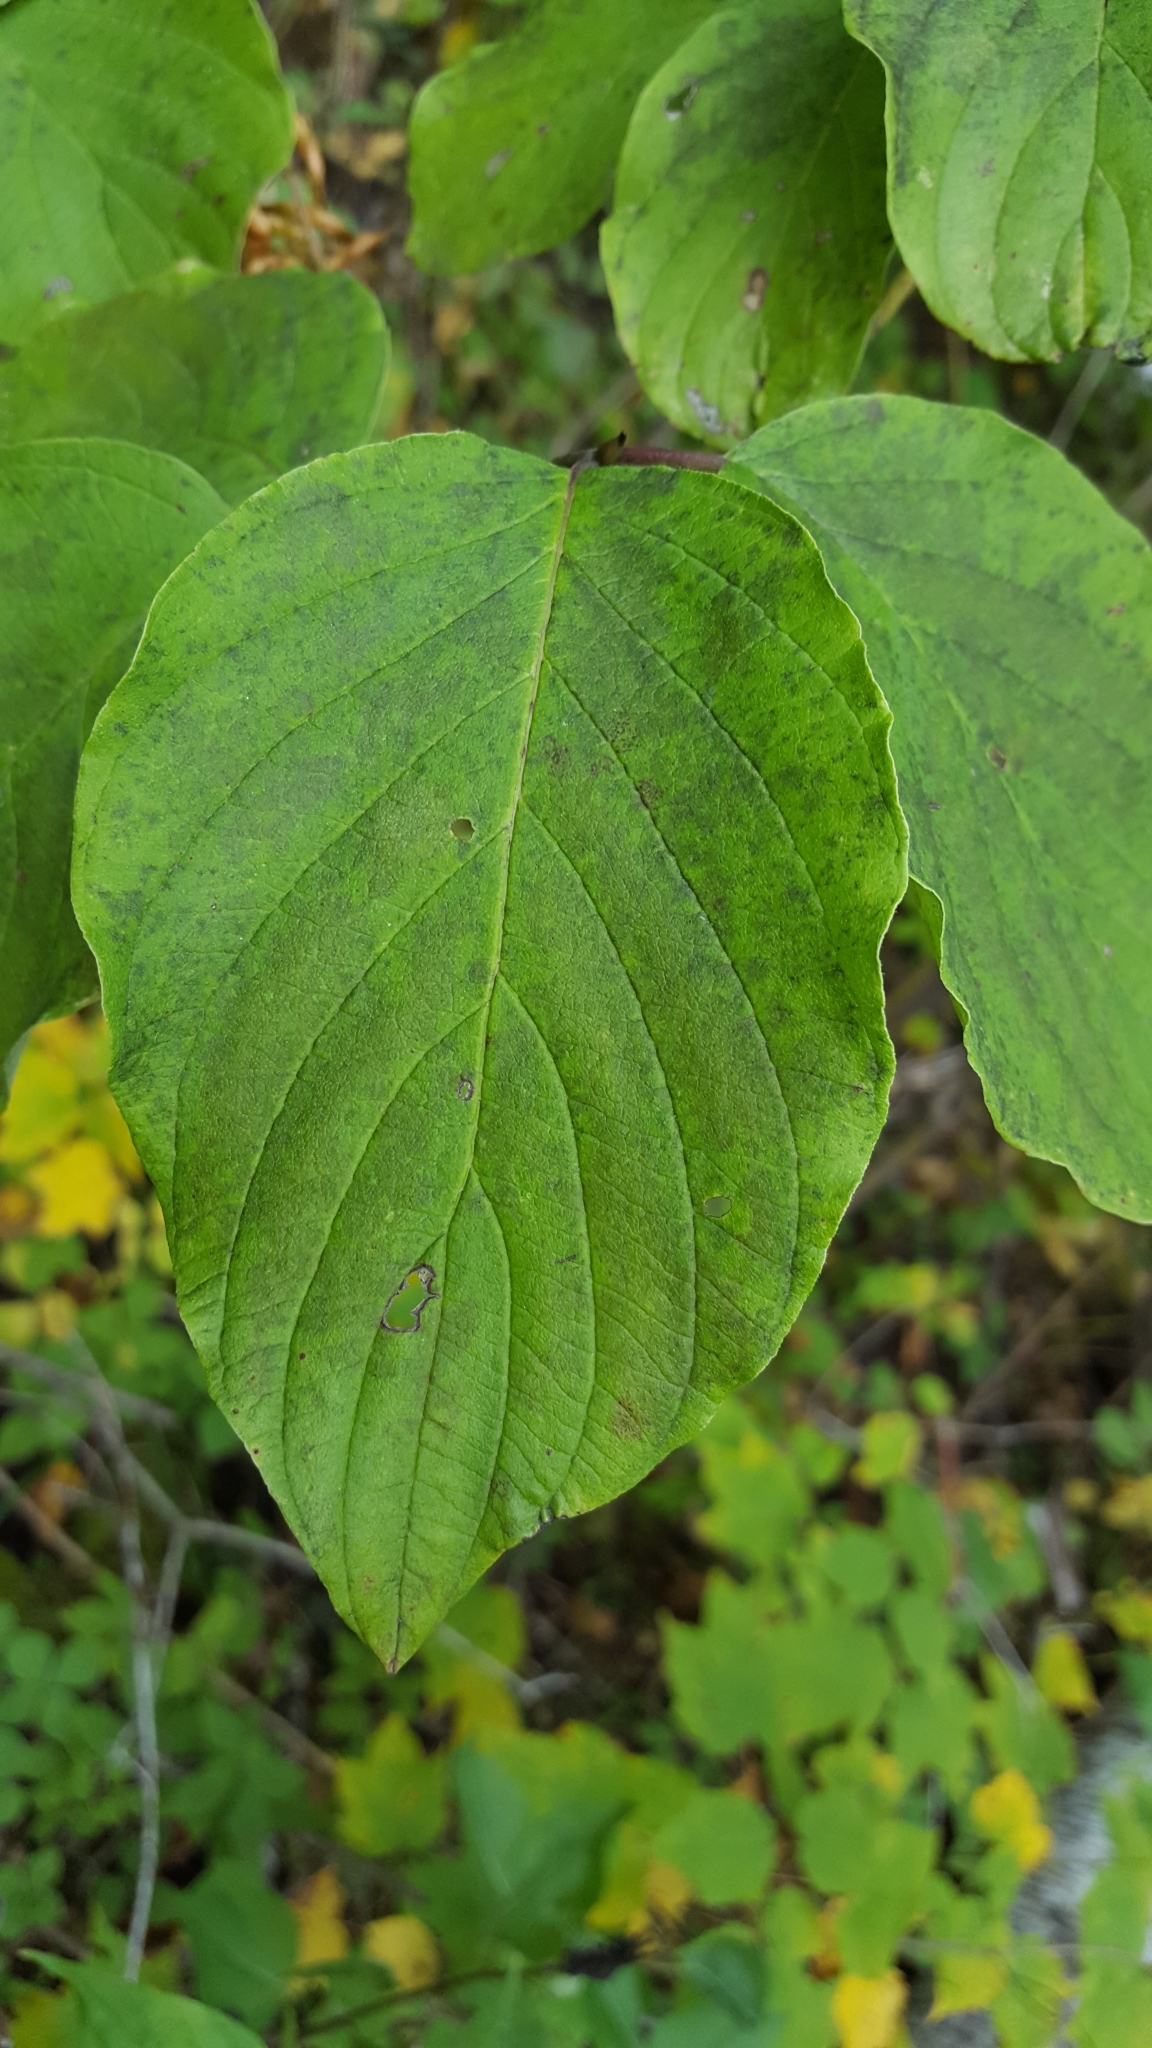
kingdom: Plantae
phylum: Tracheophyta
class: Magnoliopsida
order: Cornales
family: Cornaceae
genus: Cornus
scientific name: Cornus rugosa
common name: Round-leaf dogwood
